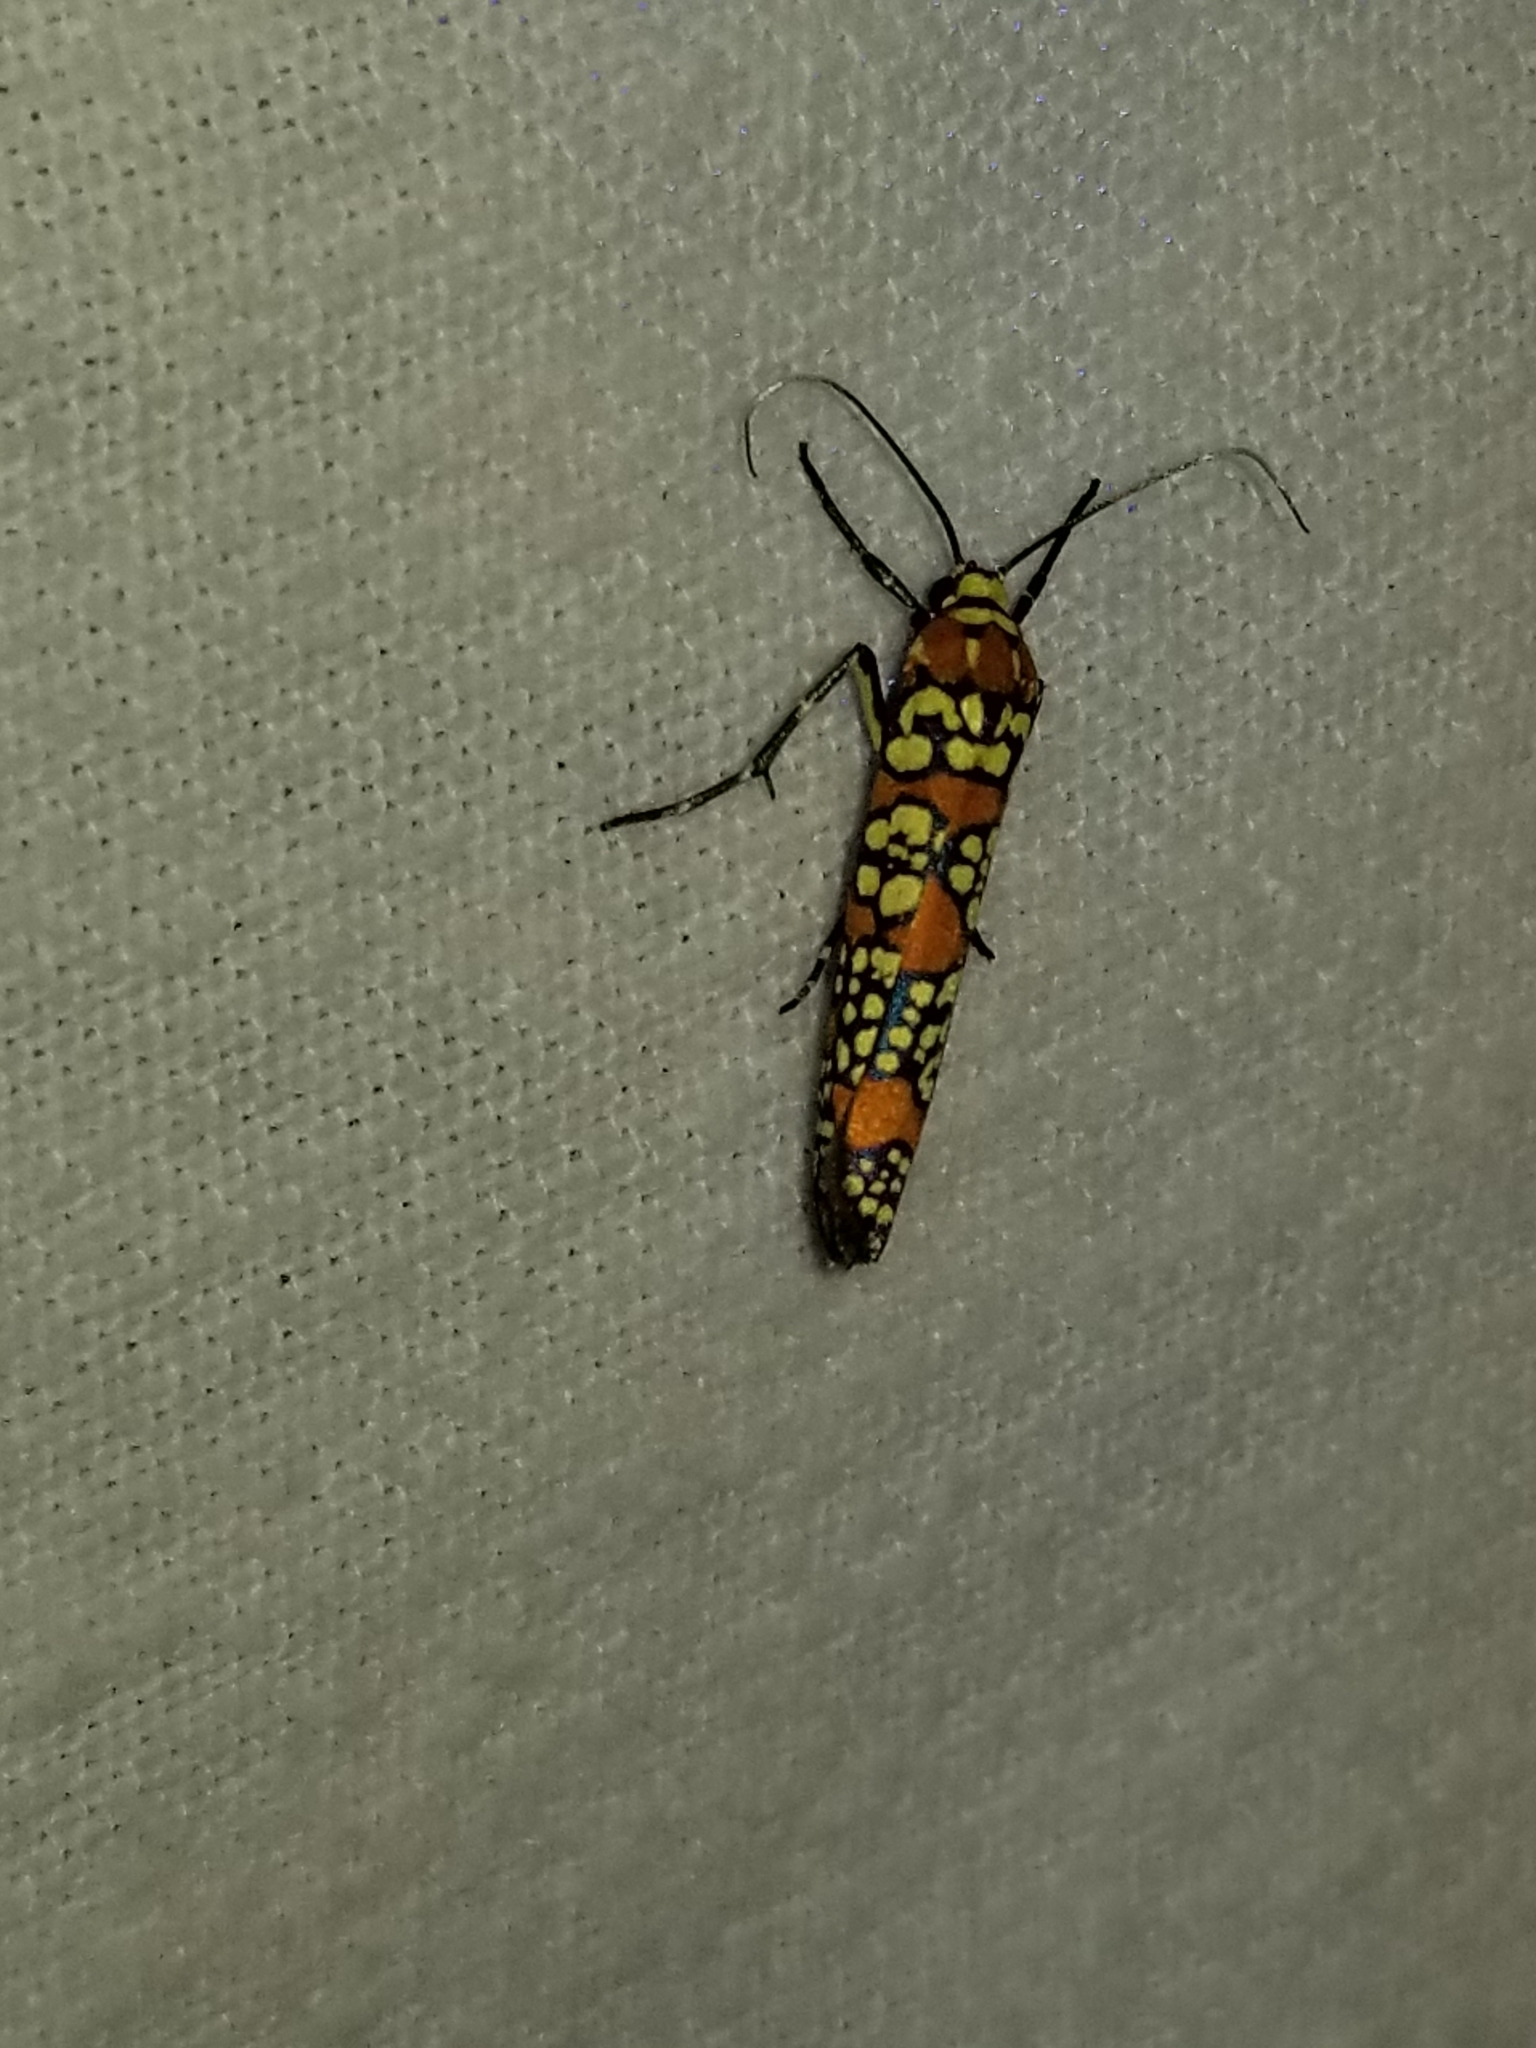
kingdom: Animalia
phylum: Arthropoda
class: Insecta
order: Lepidoptera
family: Attevidae
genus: Atteva
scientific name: Atteva punctella
